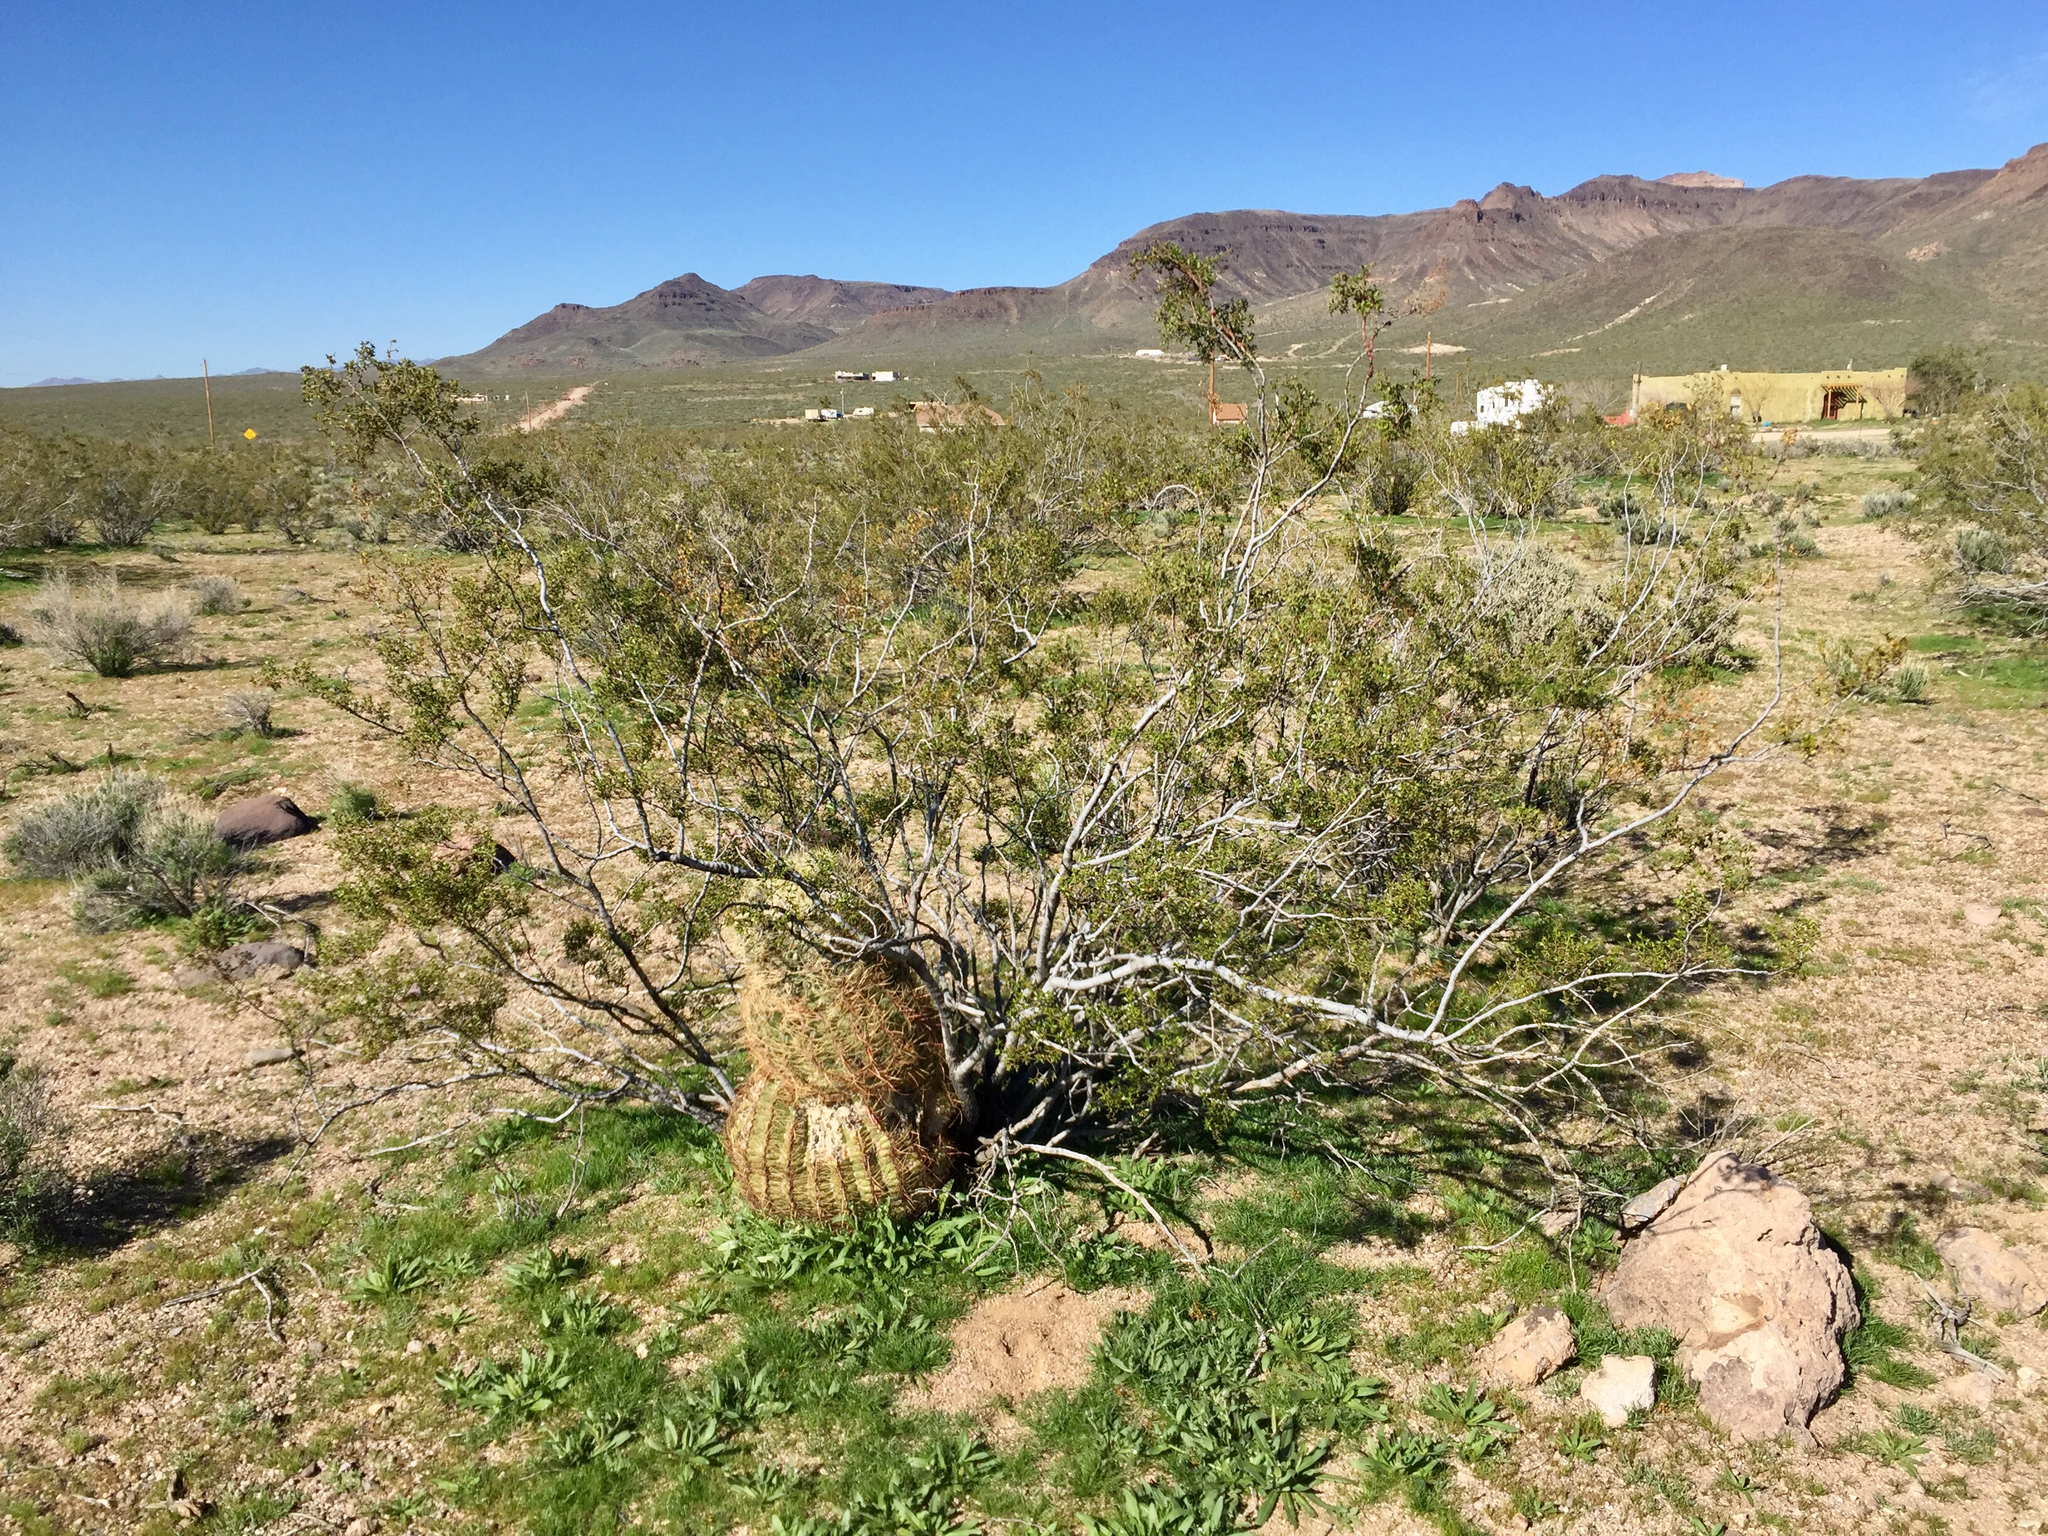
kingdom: Plantae
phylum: Tracheophyta
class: Magnoliopsida
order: Zygophyllales
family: Zygophyllaceae
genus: Larrea
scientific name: Larrea tridentata
